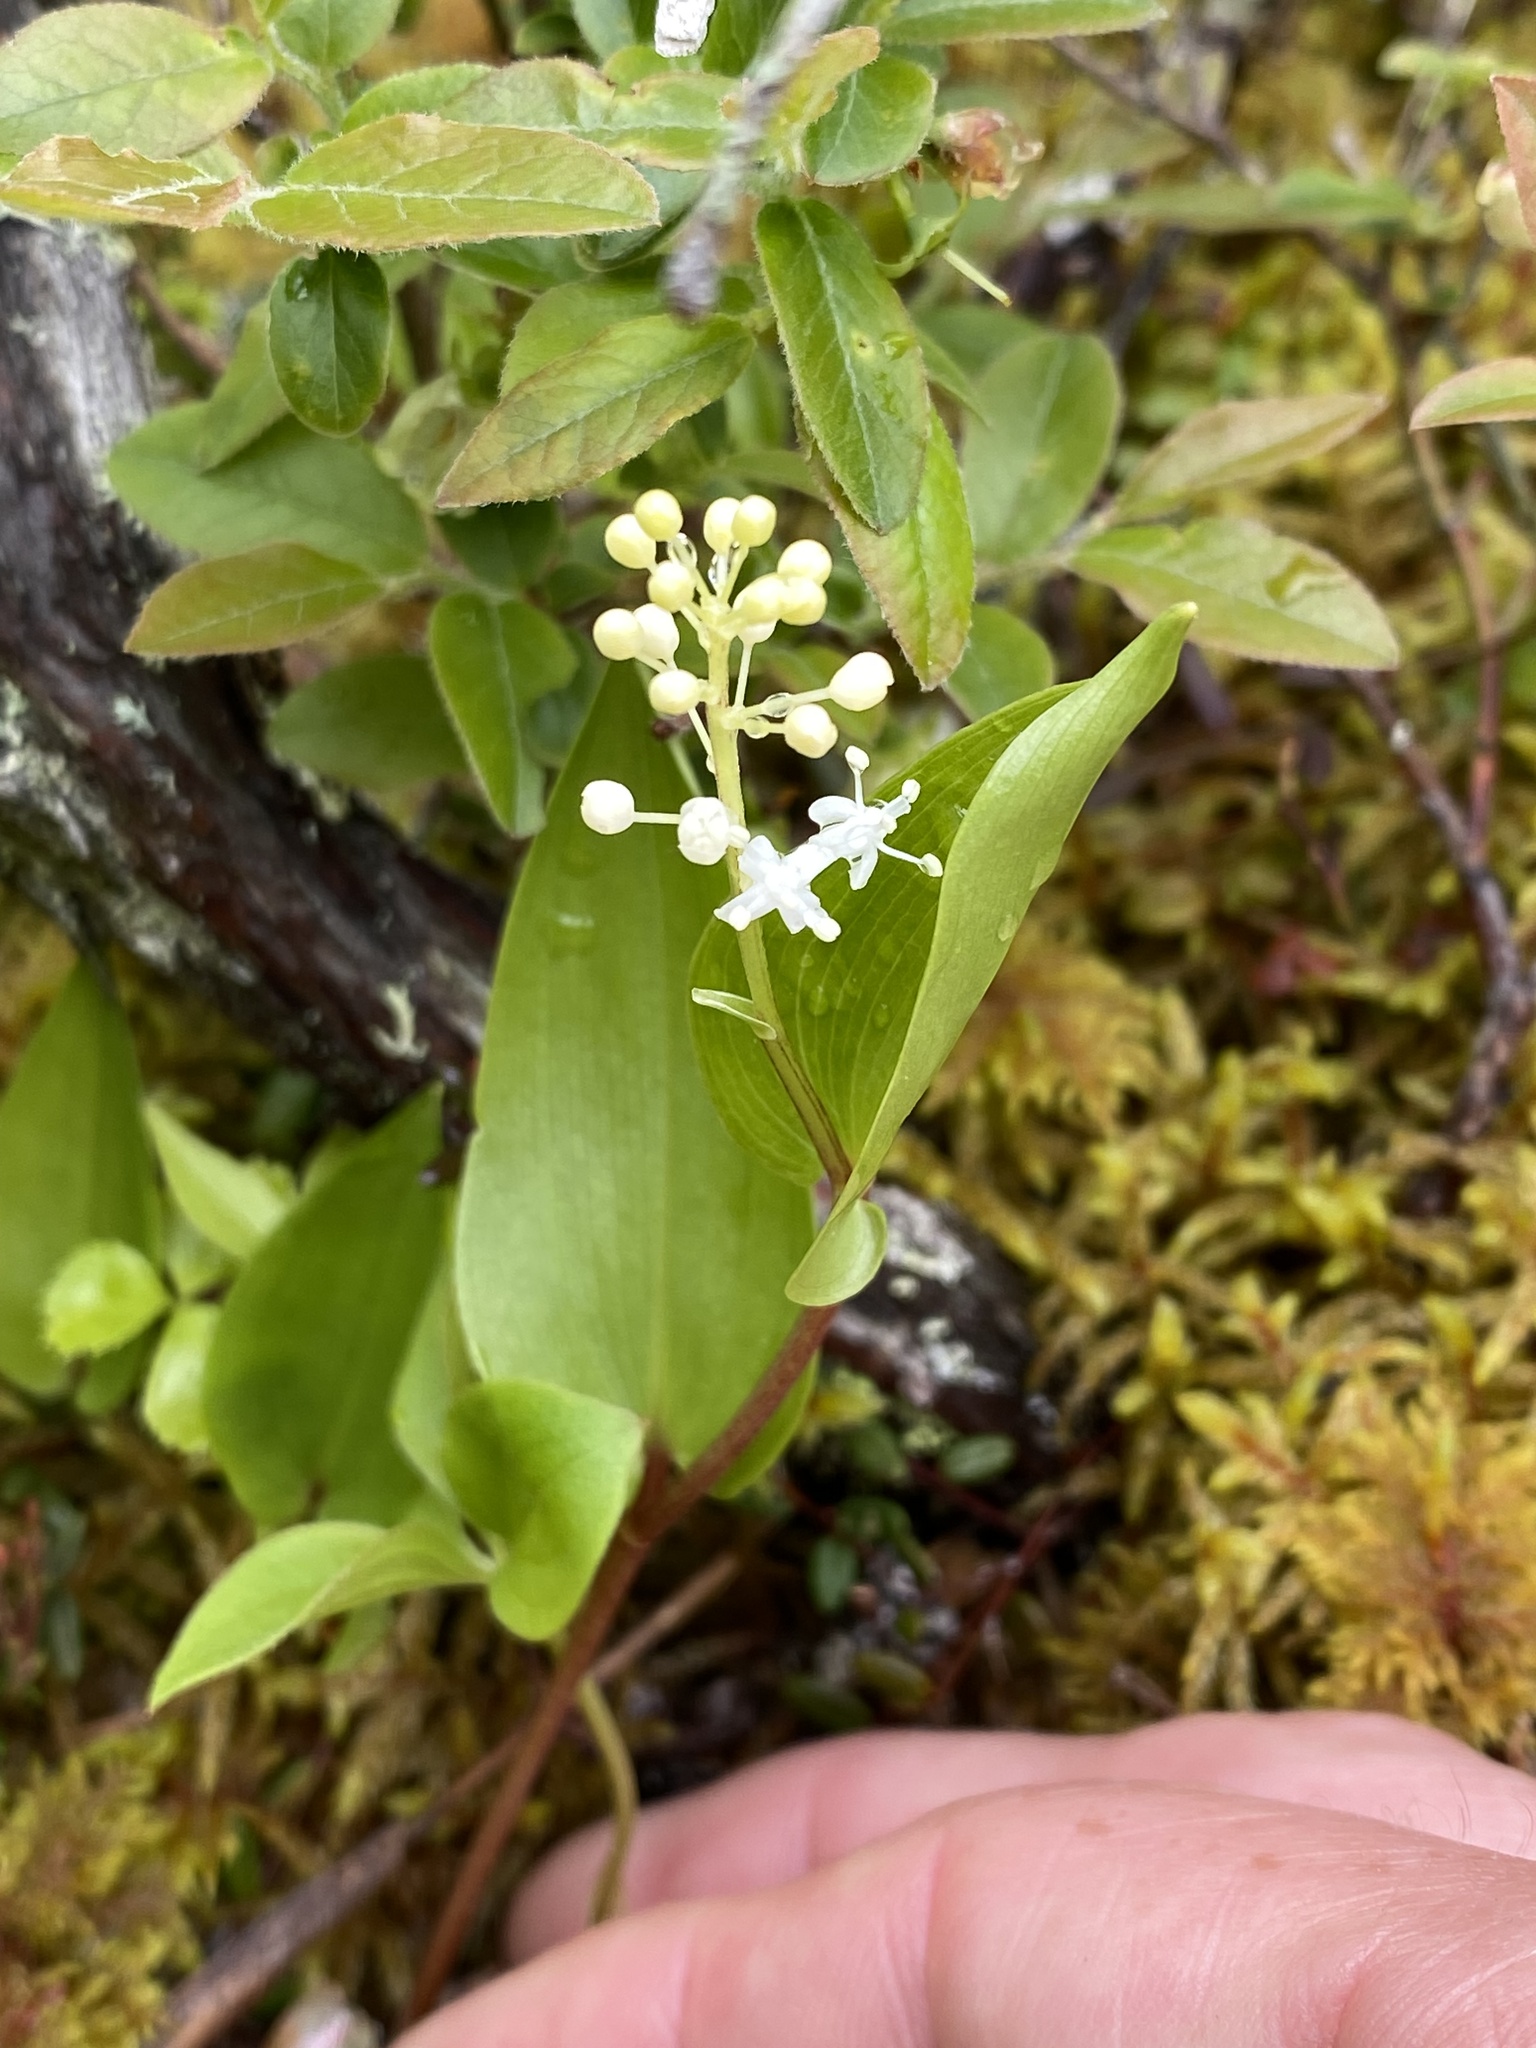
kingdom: Plantae
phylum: Tracheophyta
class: Liliopsida
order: Asparagales
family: Asparagaceae
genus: Maianthemum
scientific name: Maianthemum canadense
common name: False lily-of-the-valley
